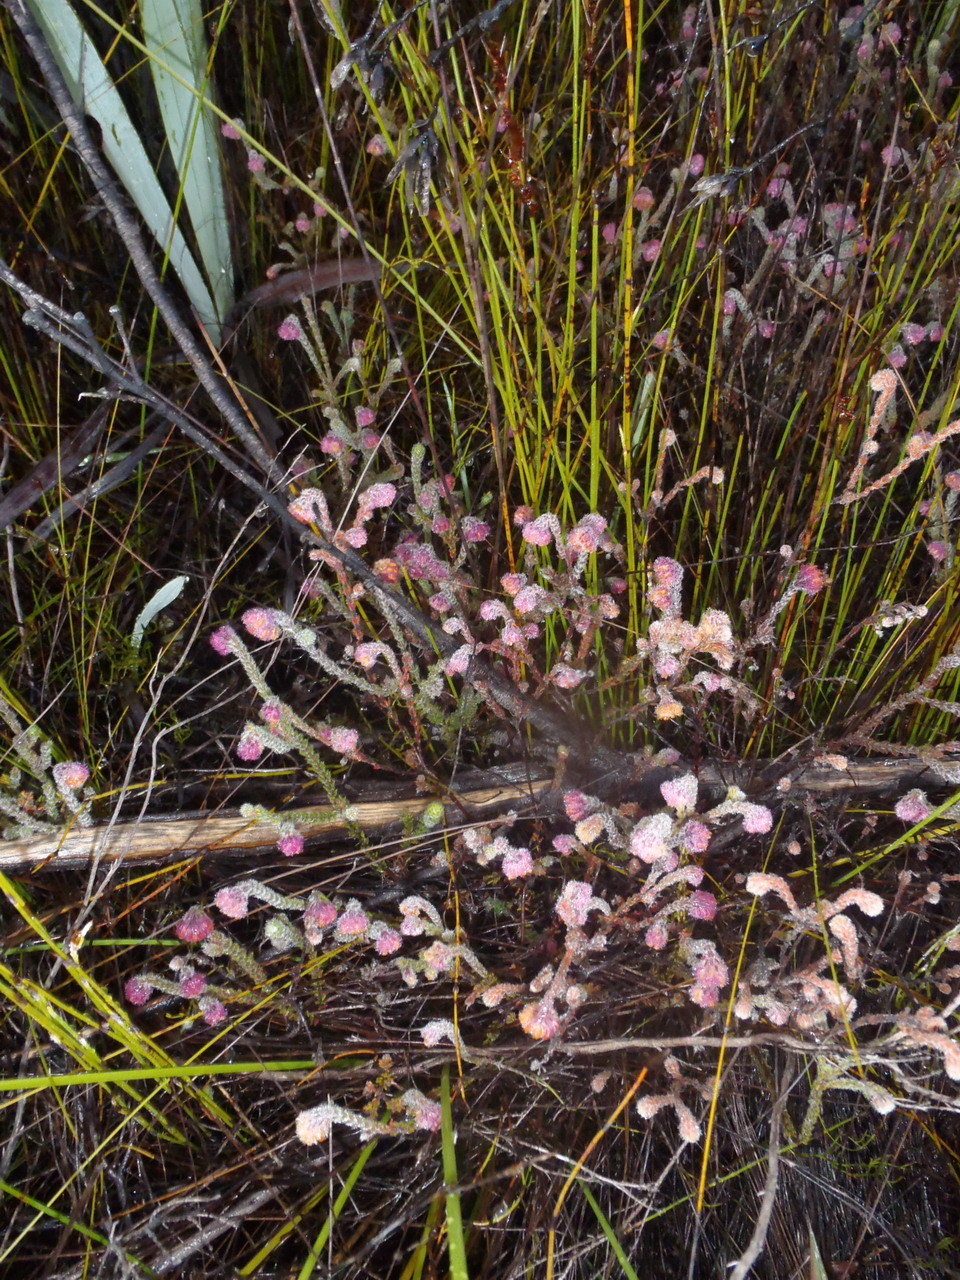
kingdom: Plantae
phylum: Tracheophyta
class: Magnoliopsida
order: Ericales
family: Ericaceae
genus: Erica
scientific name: Erica solandra
